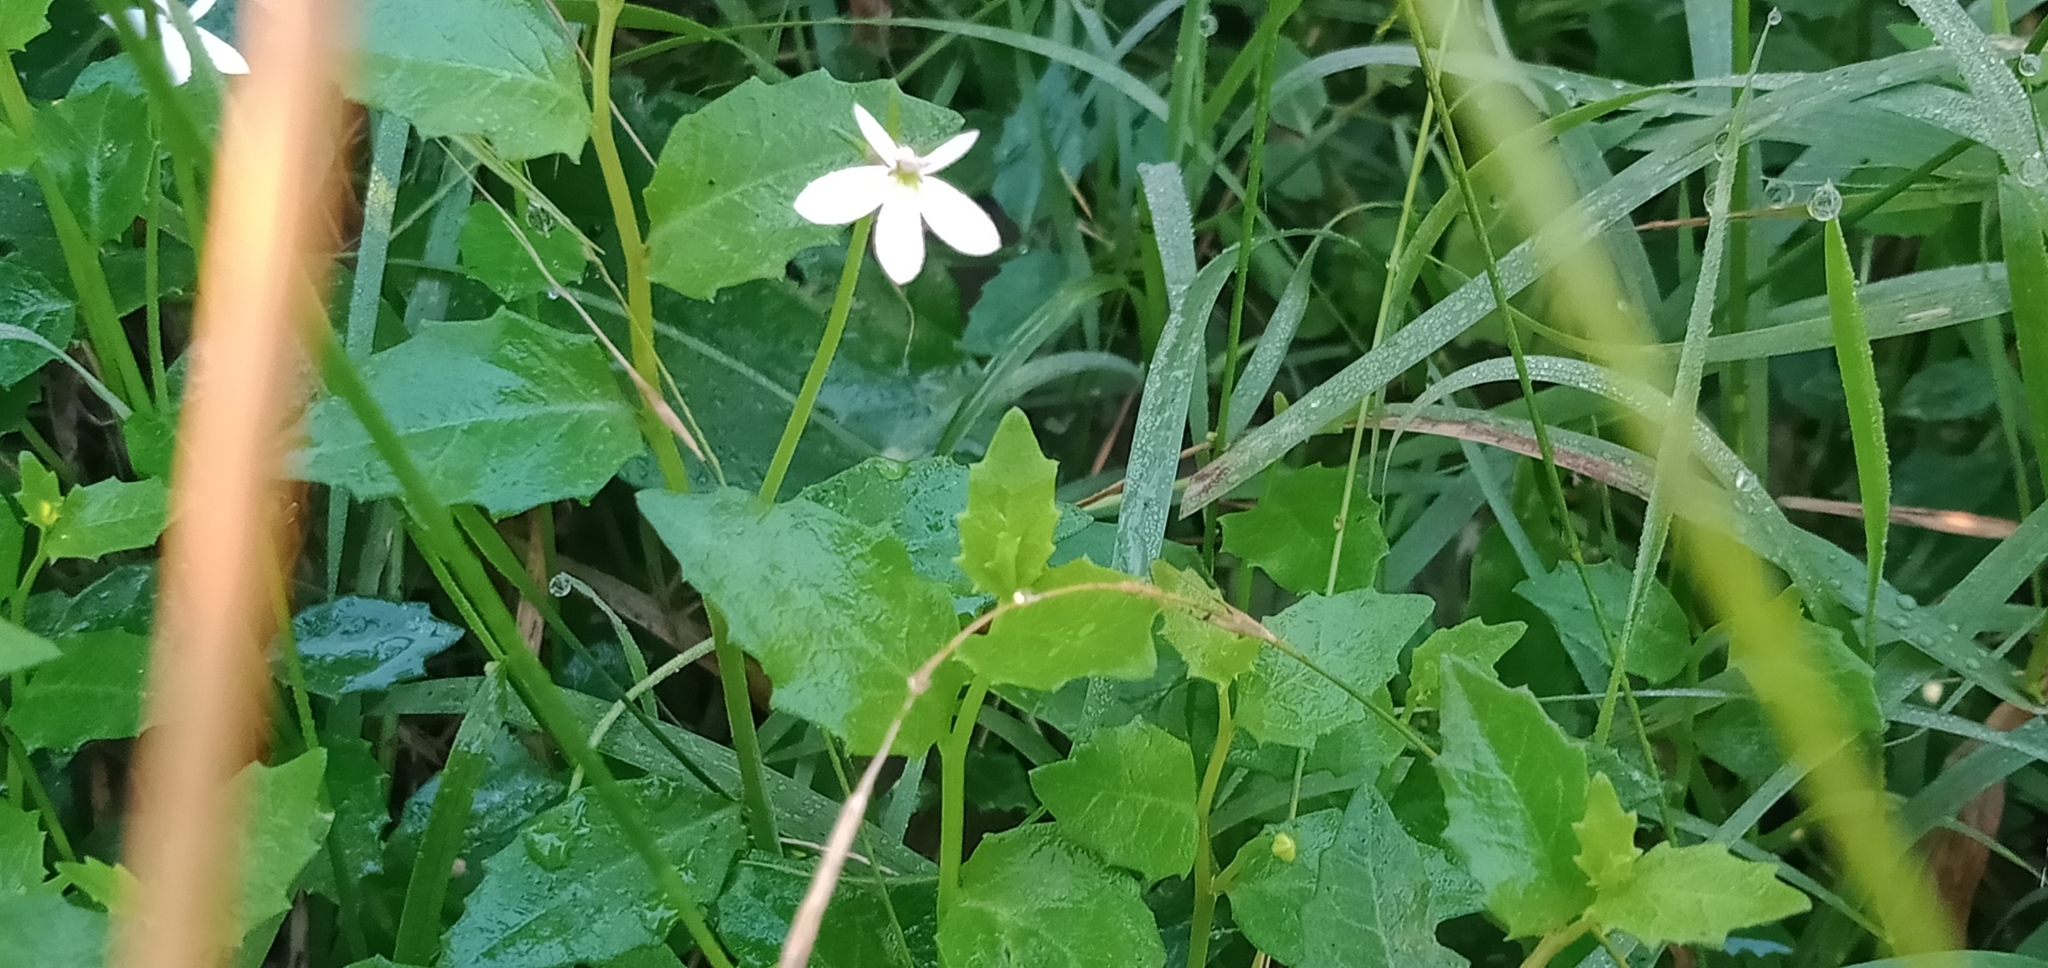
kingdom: Plantae
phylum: Tracheophyta
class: Magnoliopsida
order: Asterales
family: Campanulaceae
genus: Lobelia
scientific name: Lobelia purpurascens
